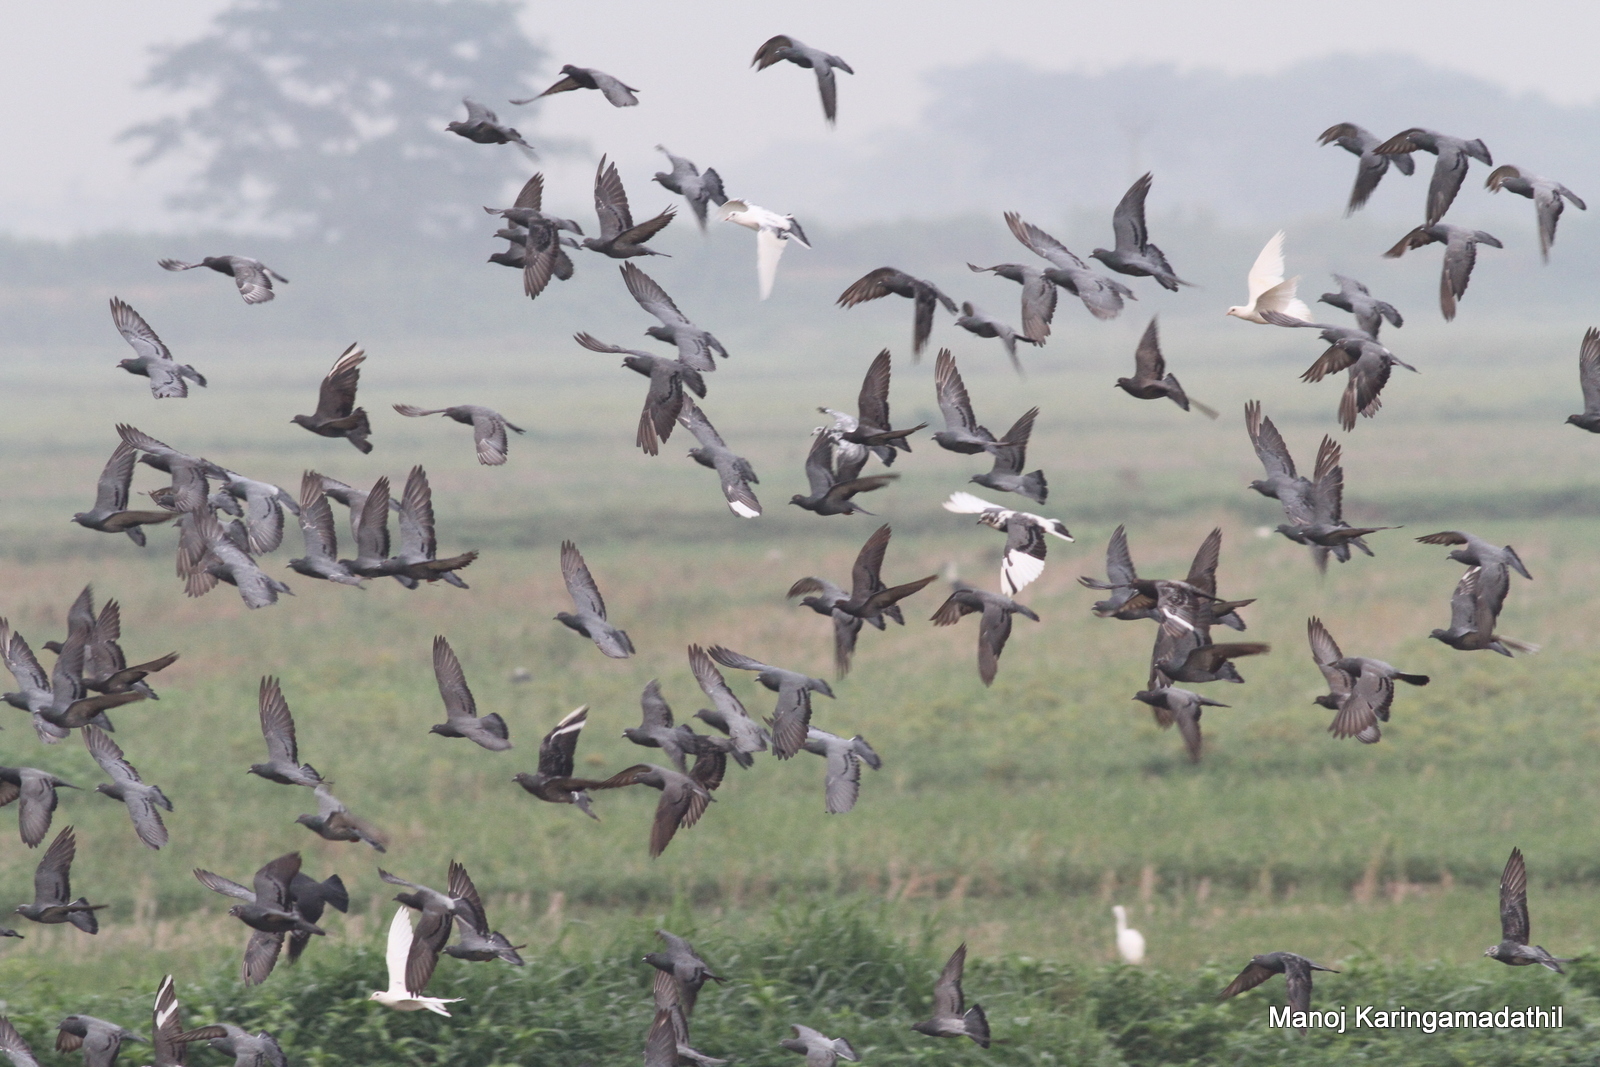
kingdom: Animalia
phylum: Chordata
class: Aves
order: Columbiformes
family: Columbidae
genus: Columba
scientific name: Columba livia
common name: Rock pigeon
